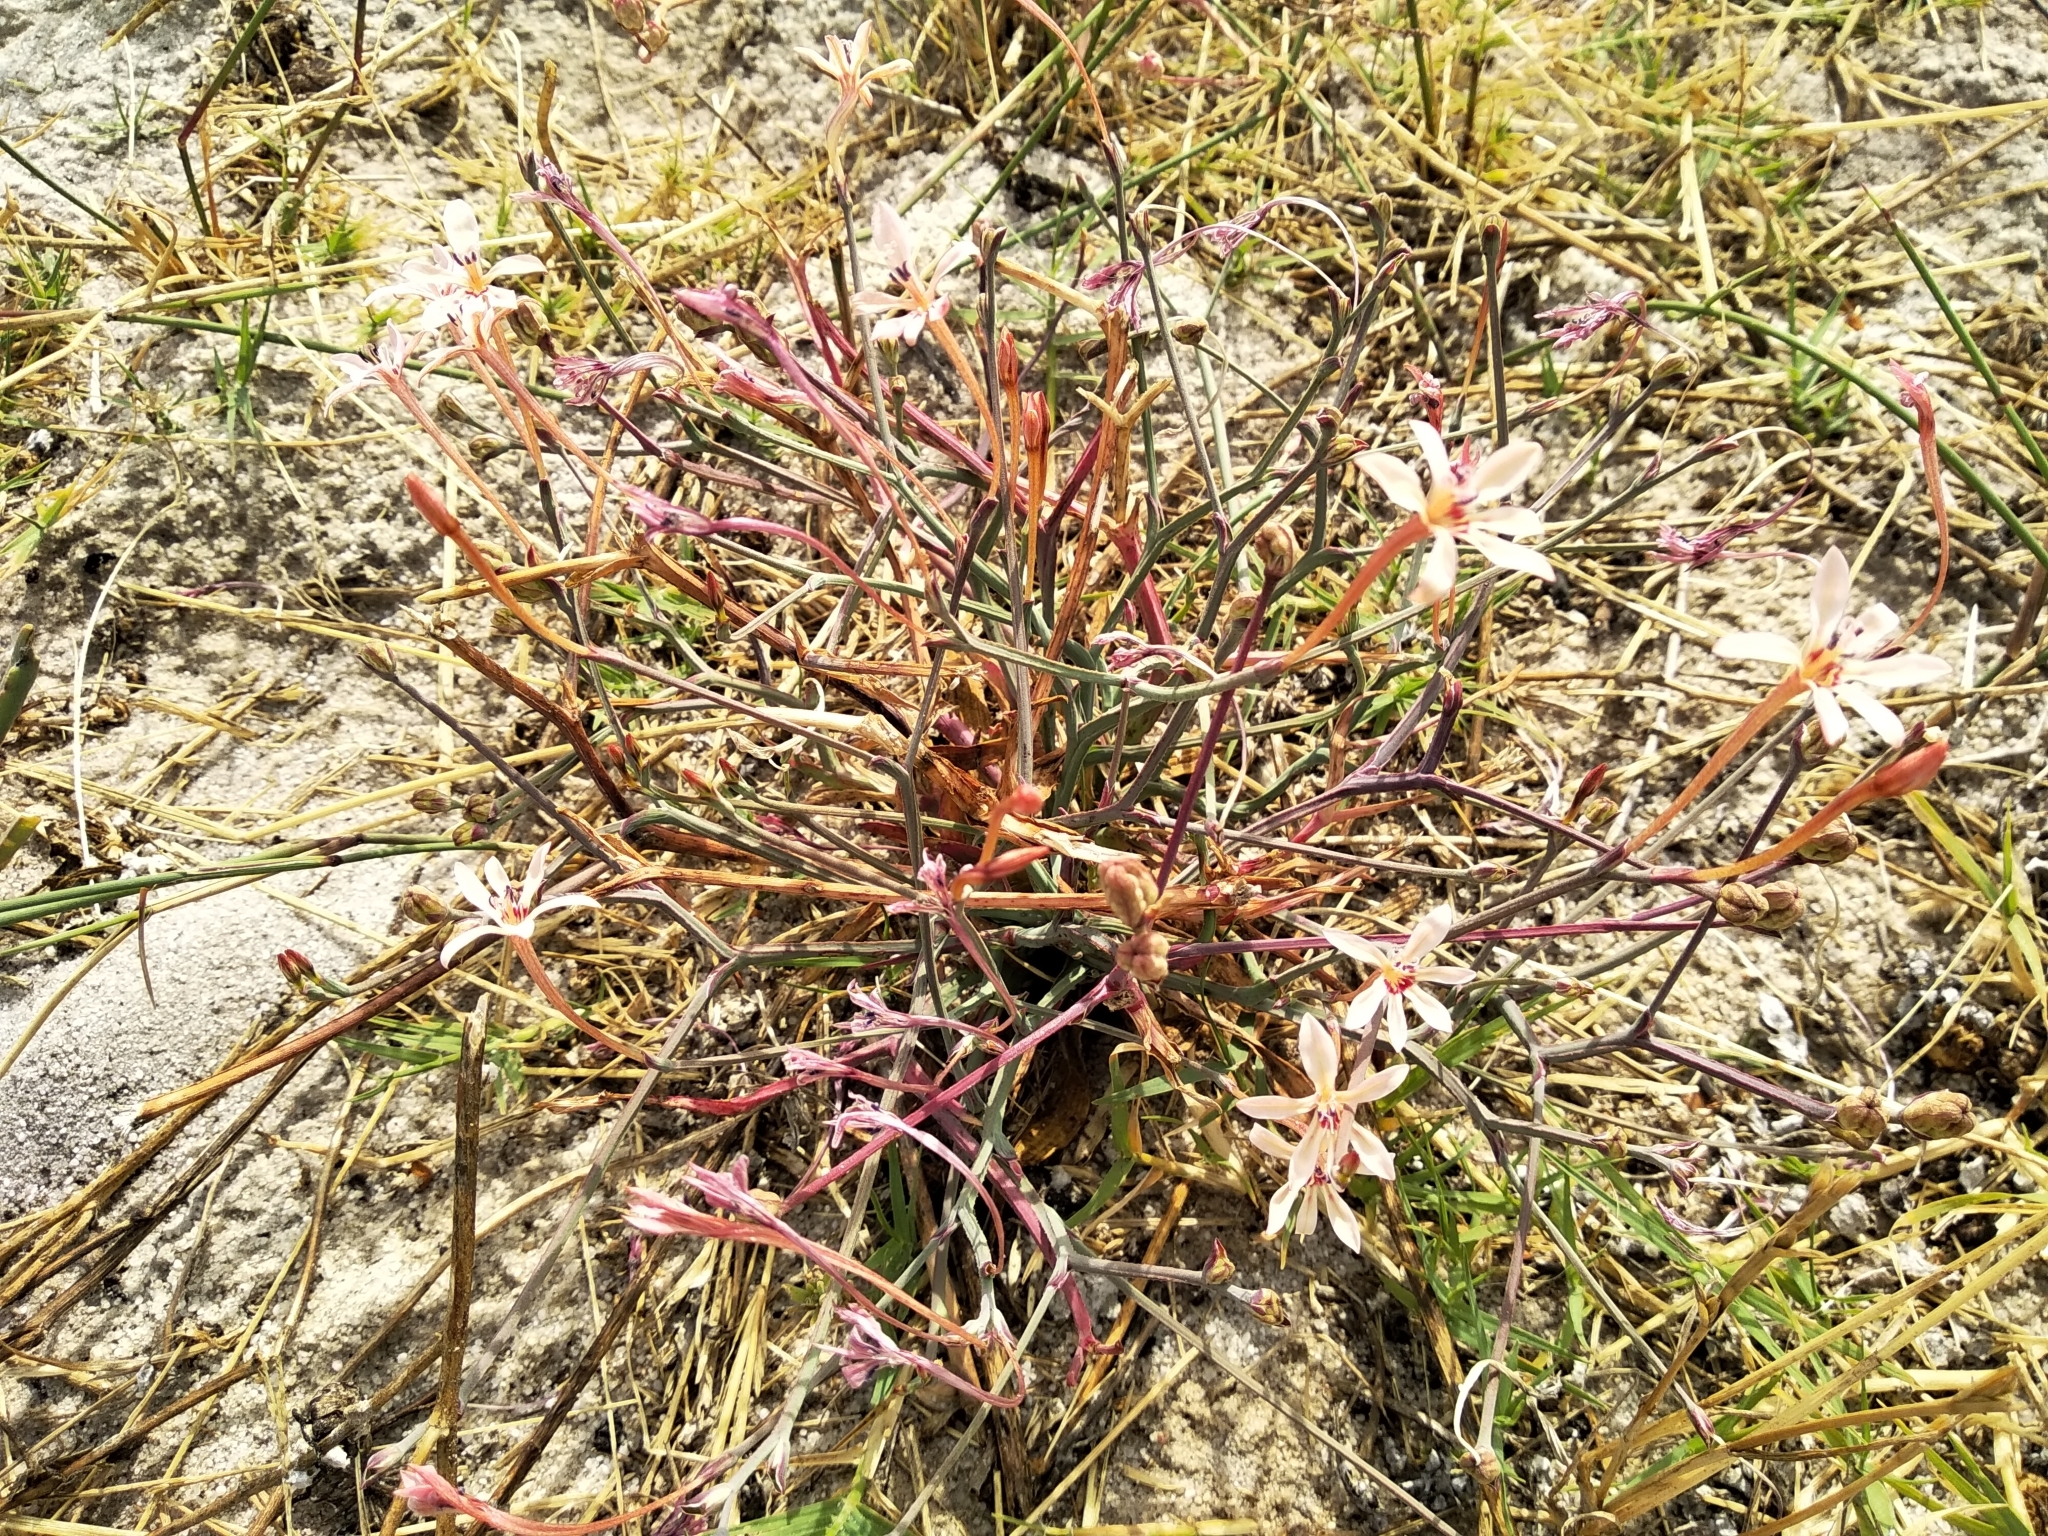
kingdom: Plantae
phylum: Tracheophyta
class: Liliopsida
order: Asparagales
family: Iridaceae
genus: Lapeirousia
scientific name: Lapeirousia anceps
